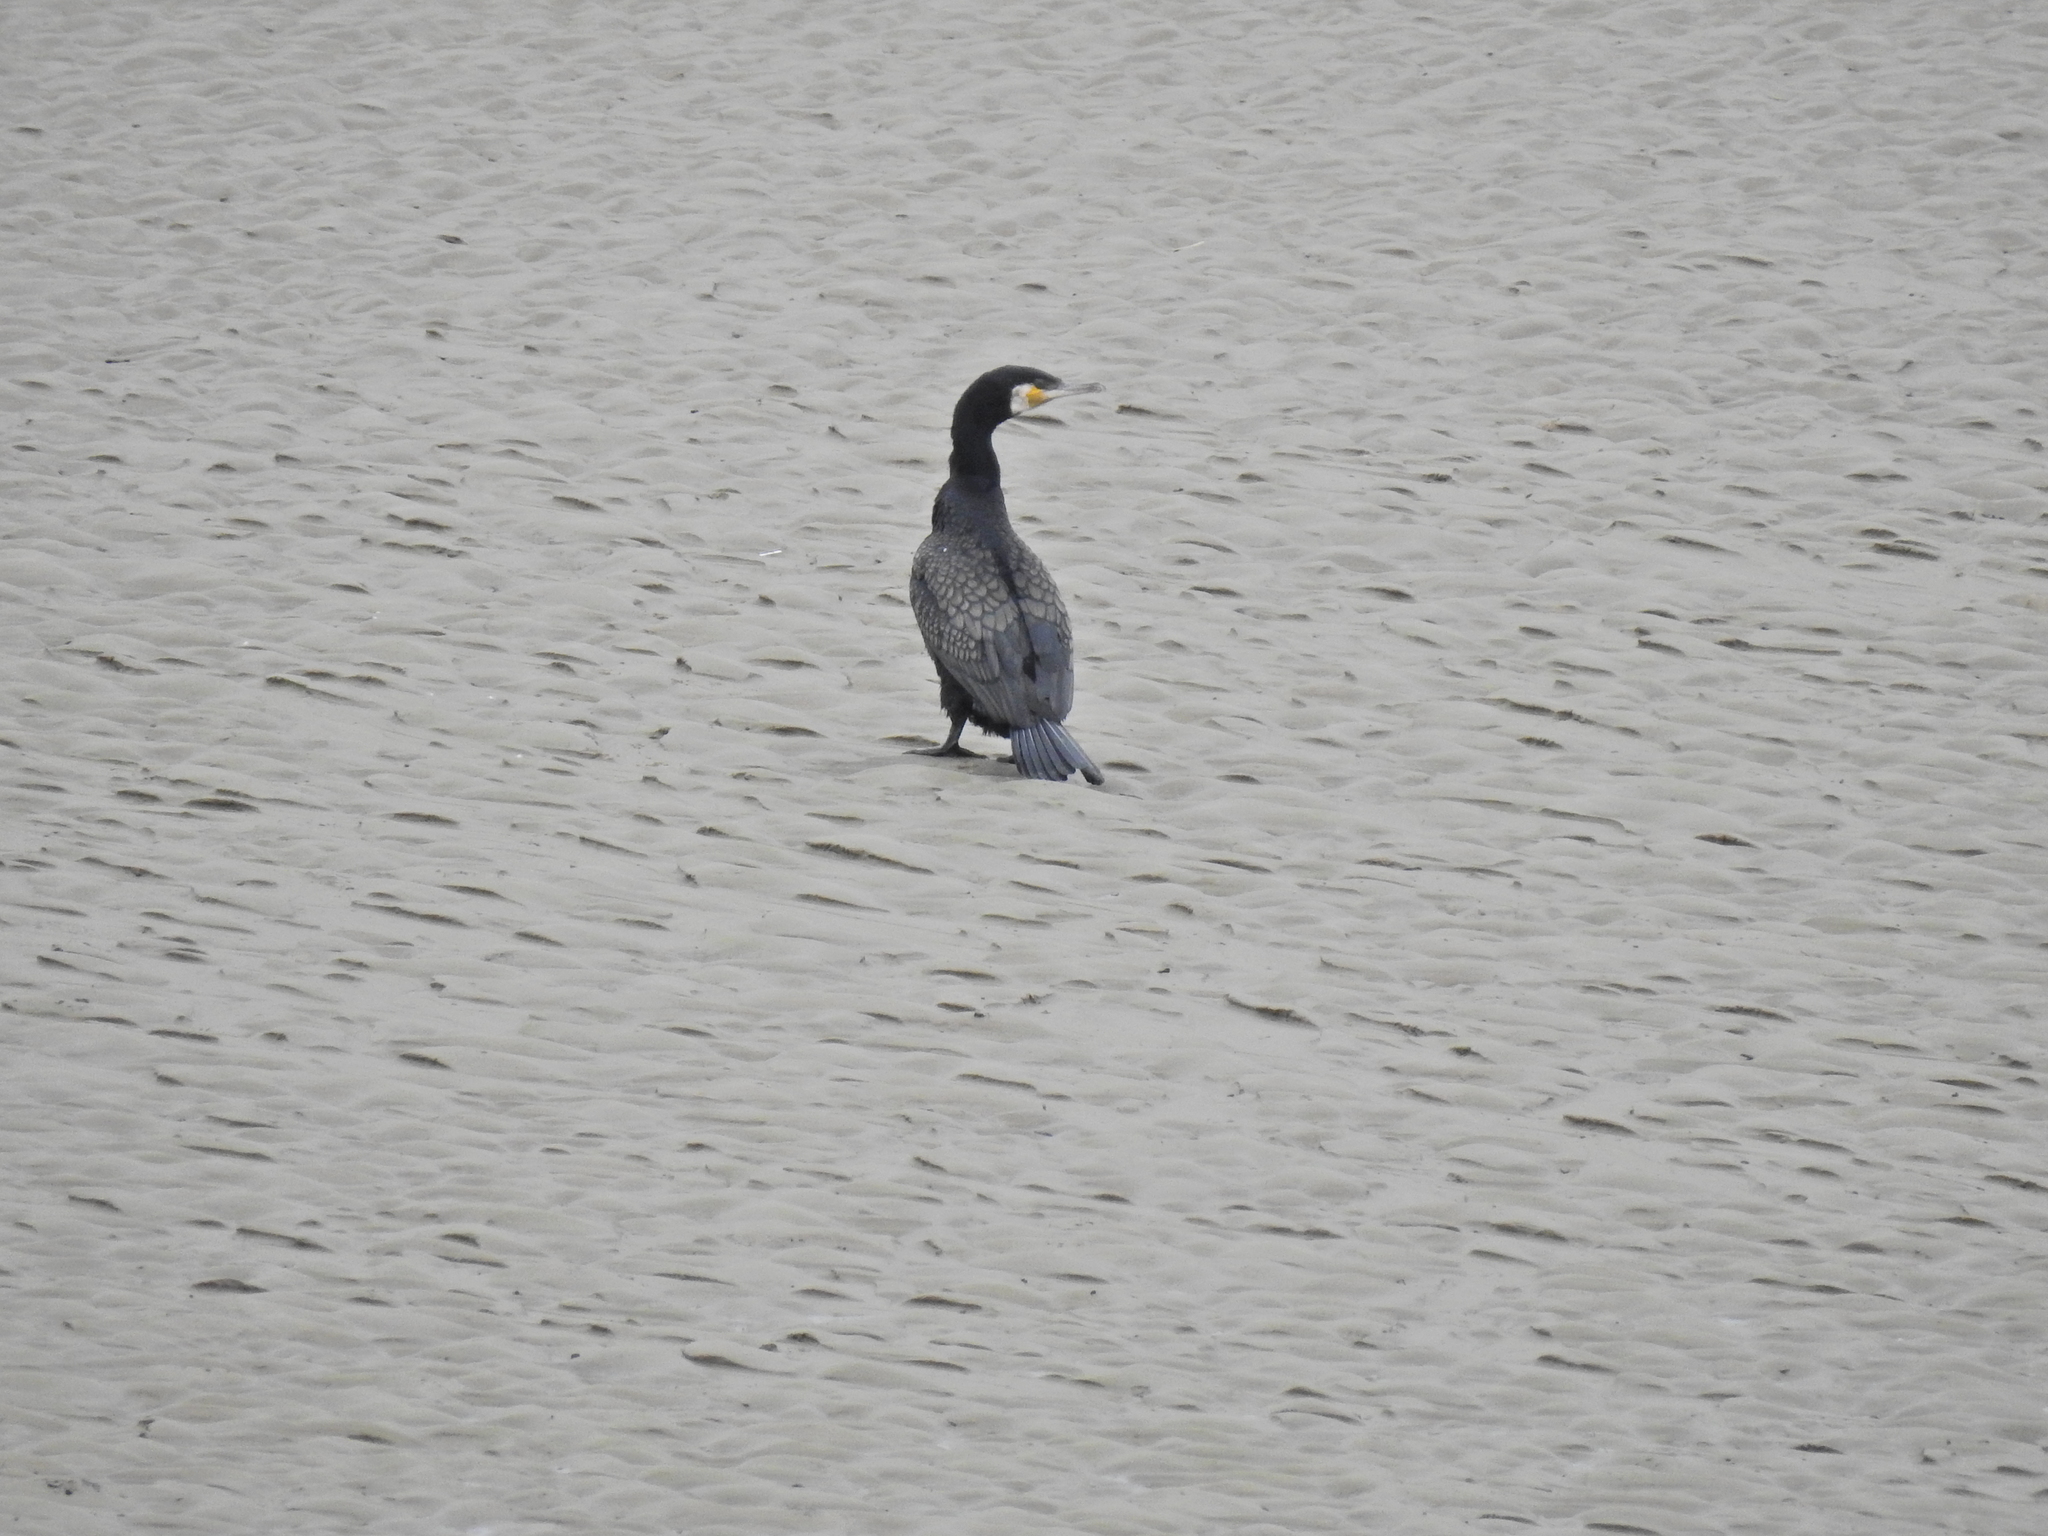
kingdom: Animalia
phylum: Chordata
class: Aves
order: Suliformes
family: Phalacrocoracidae
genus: Phalacrocorax
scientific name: Phalacrocorax carbo
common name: Great cormorant
